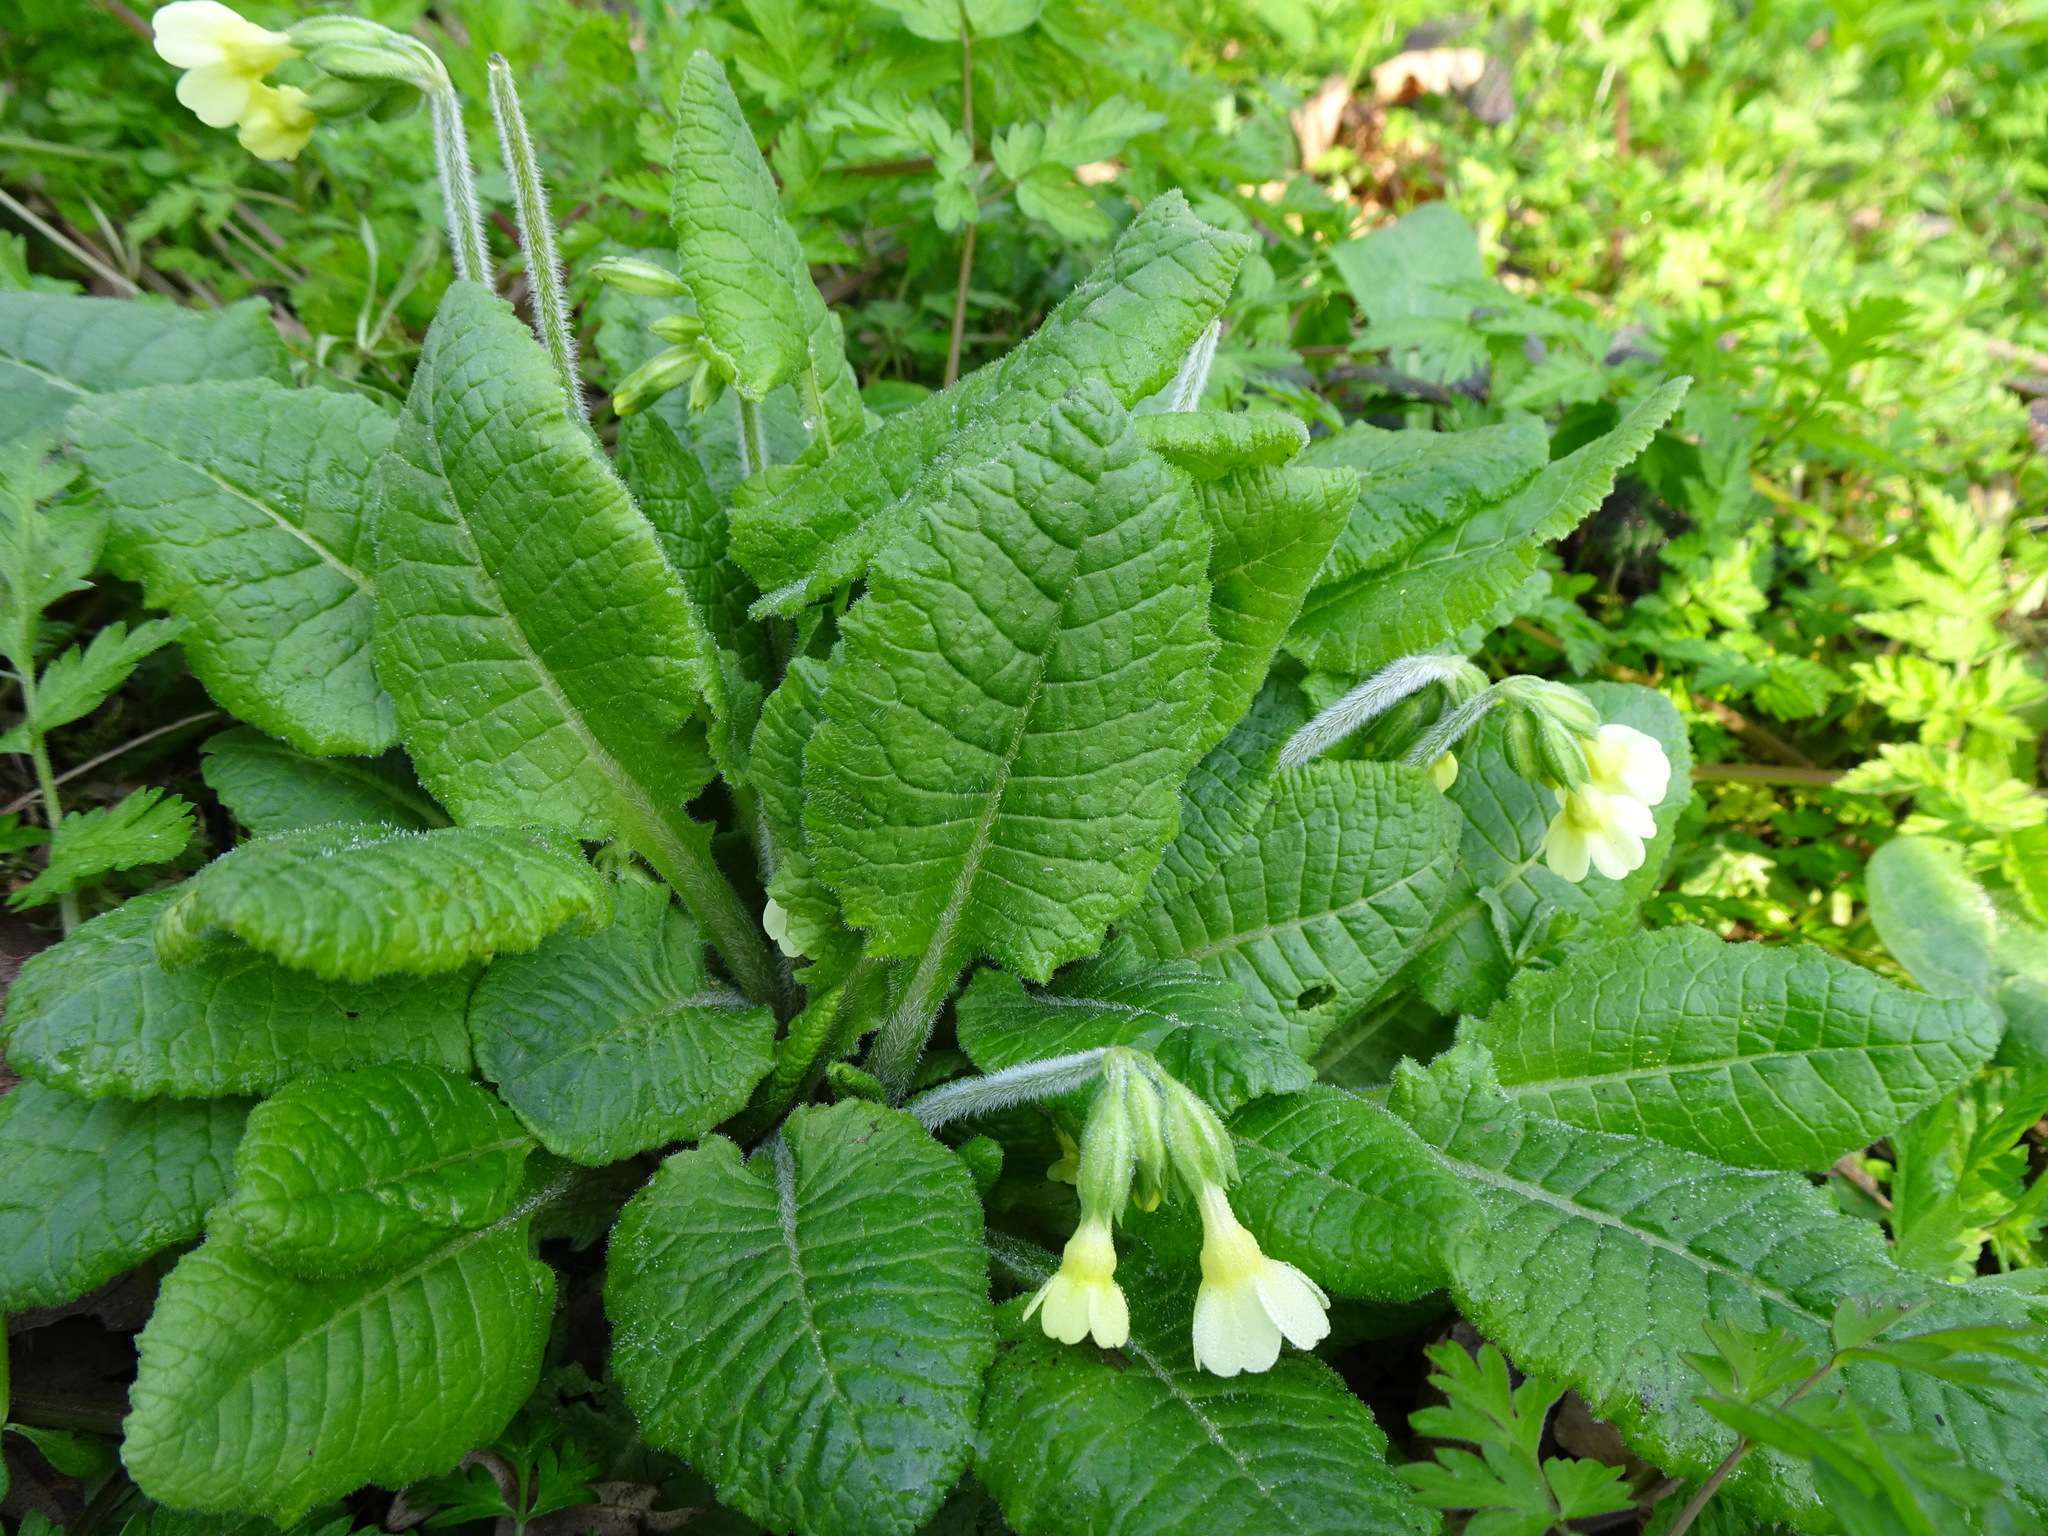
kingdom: Plantae
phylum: Tracheophyta
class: Magnoliopsida
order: Ericales
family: Primulaceae
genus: Primula
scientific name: Primula elatior
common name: Oxlip
